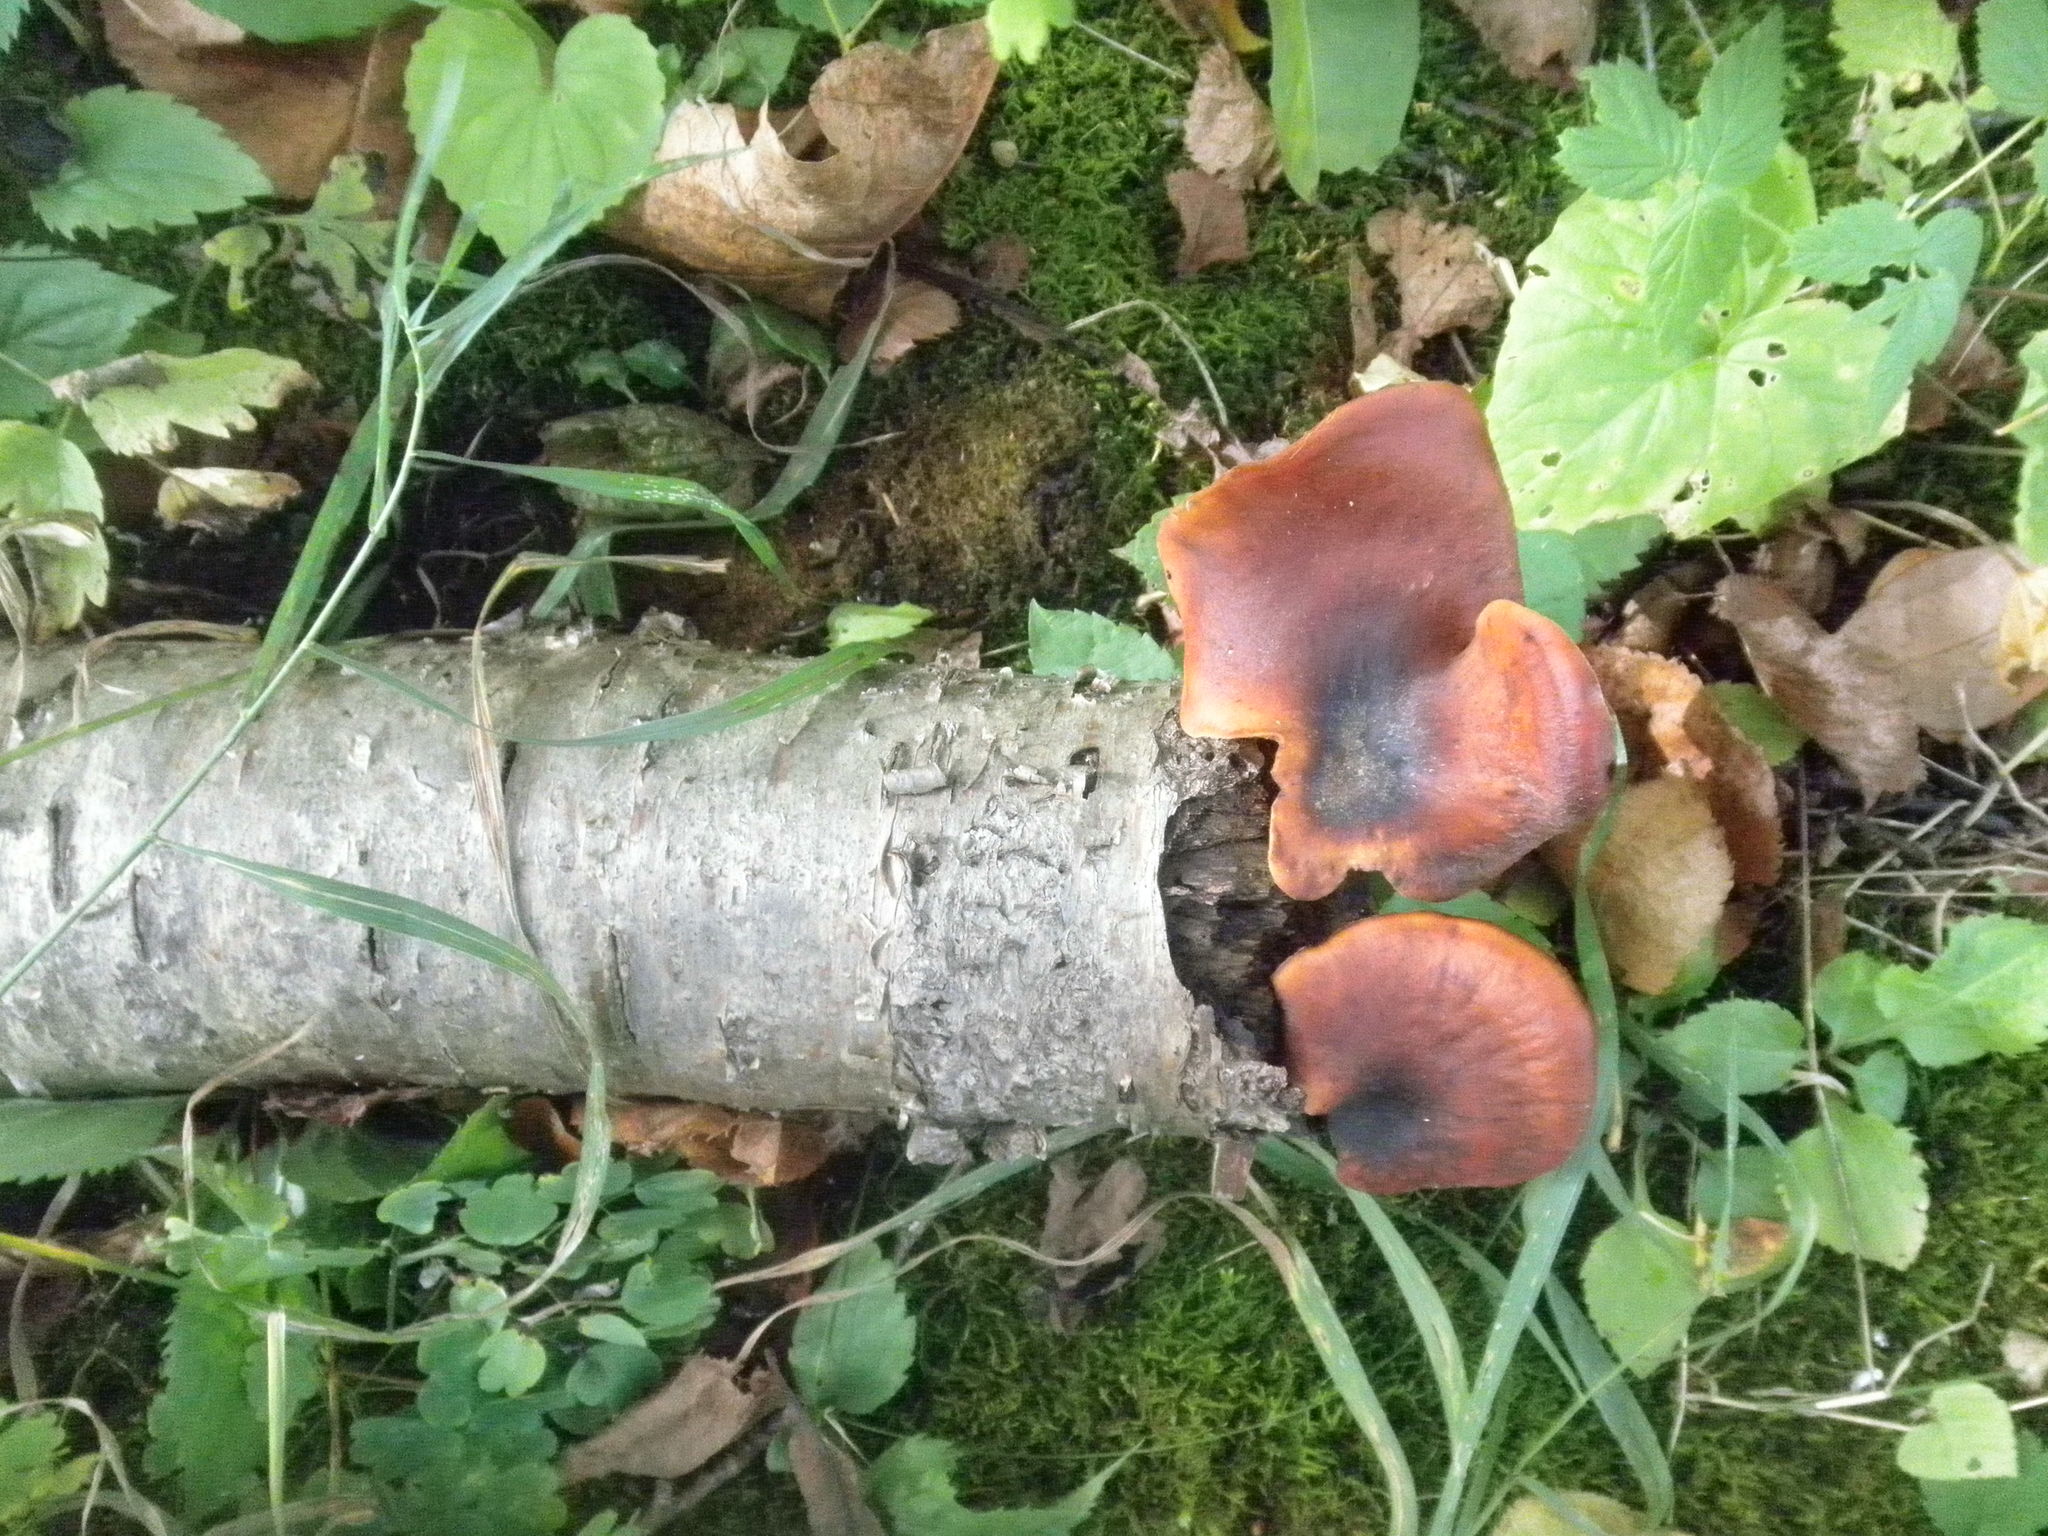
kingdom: Fungi
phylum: Basidiomycota
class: Agaricomycetes
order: Polyporales
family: Polyporaceae
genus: Picipes
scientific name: Picipes badius
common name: Bay polypore
